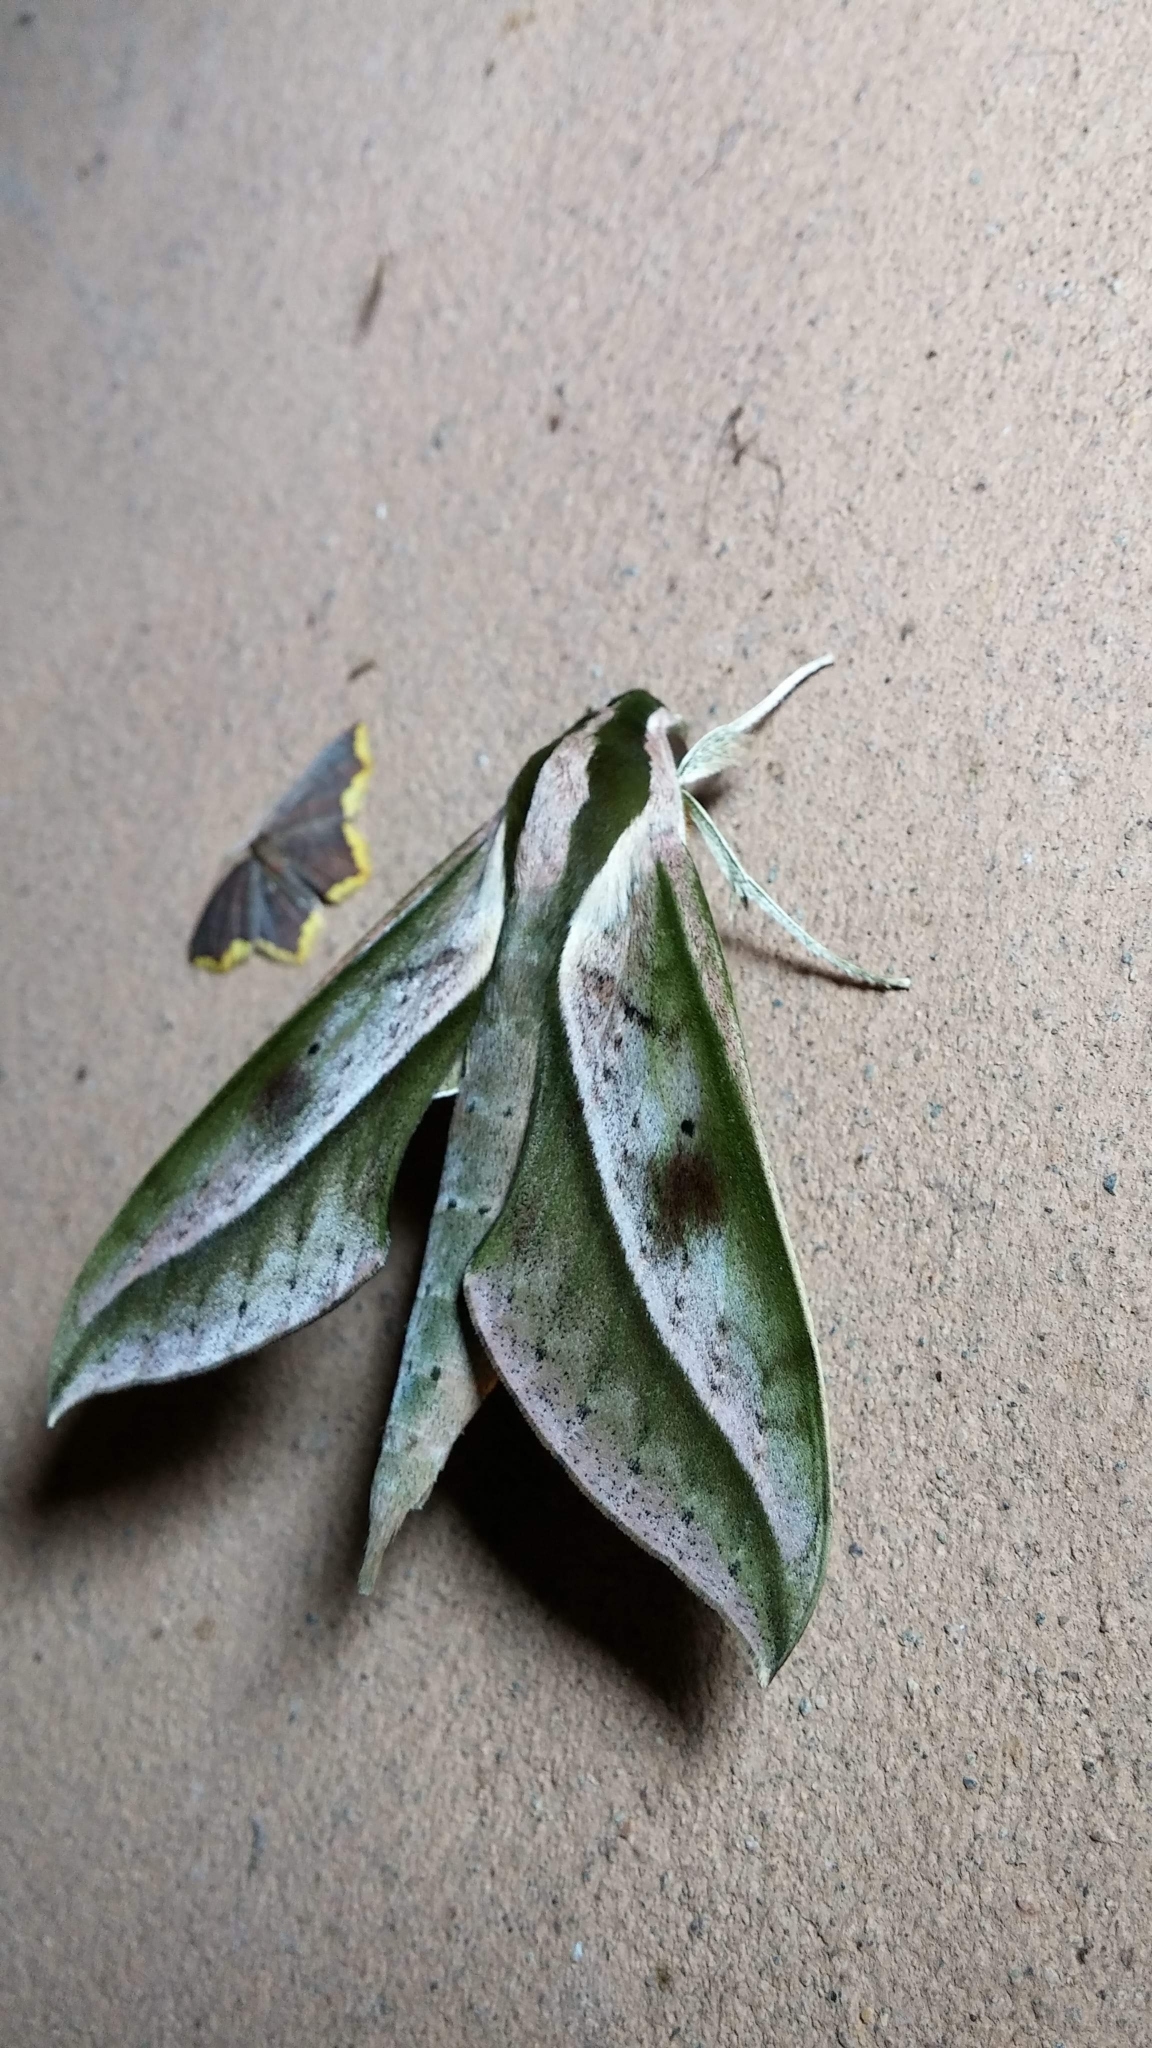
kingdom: Animalia
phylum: Arthropoda
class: Insecta
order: Lepidoptera
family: Sphingidae
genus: Xylophanes
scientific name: Xylophanes amadis
